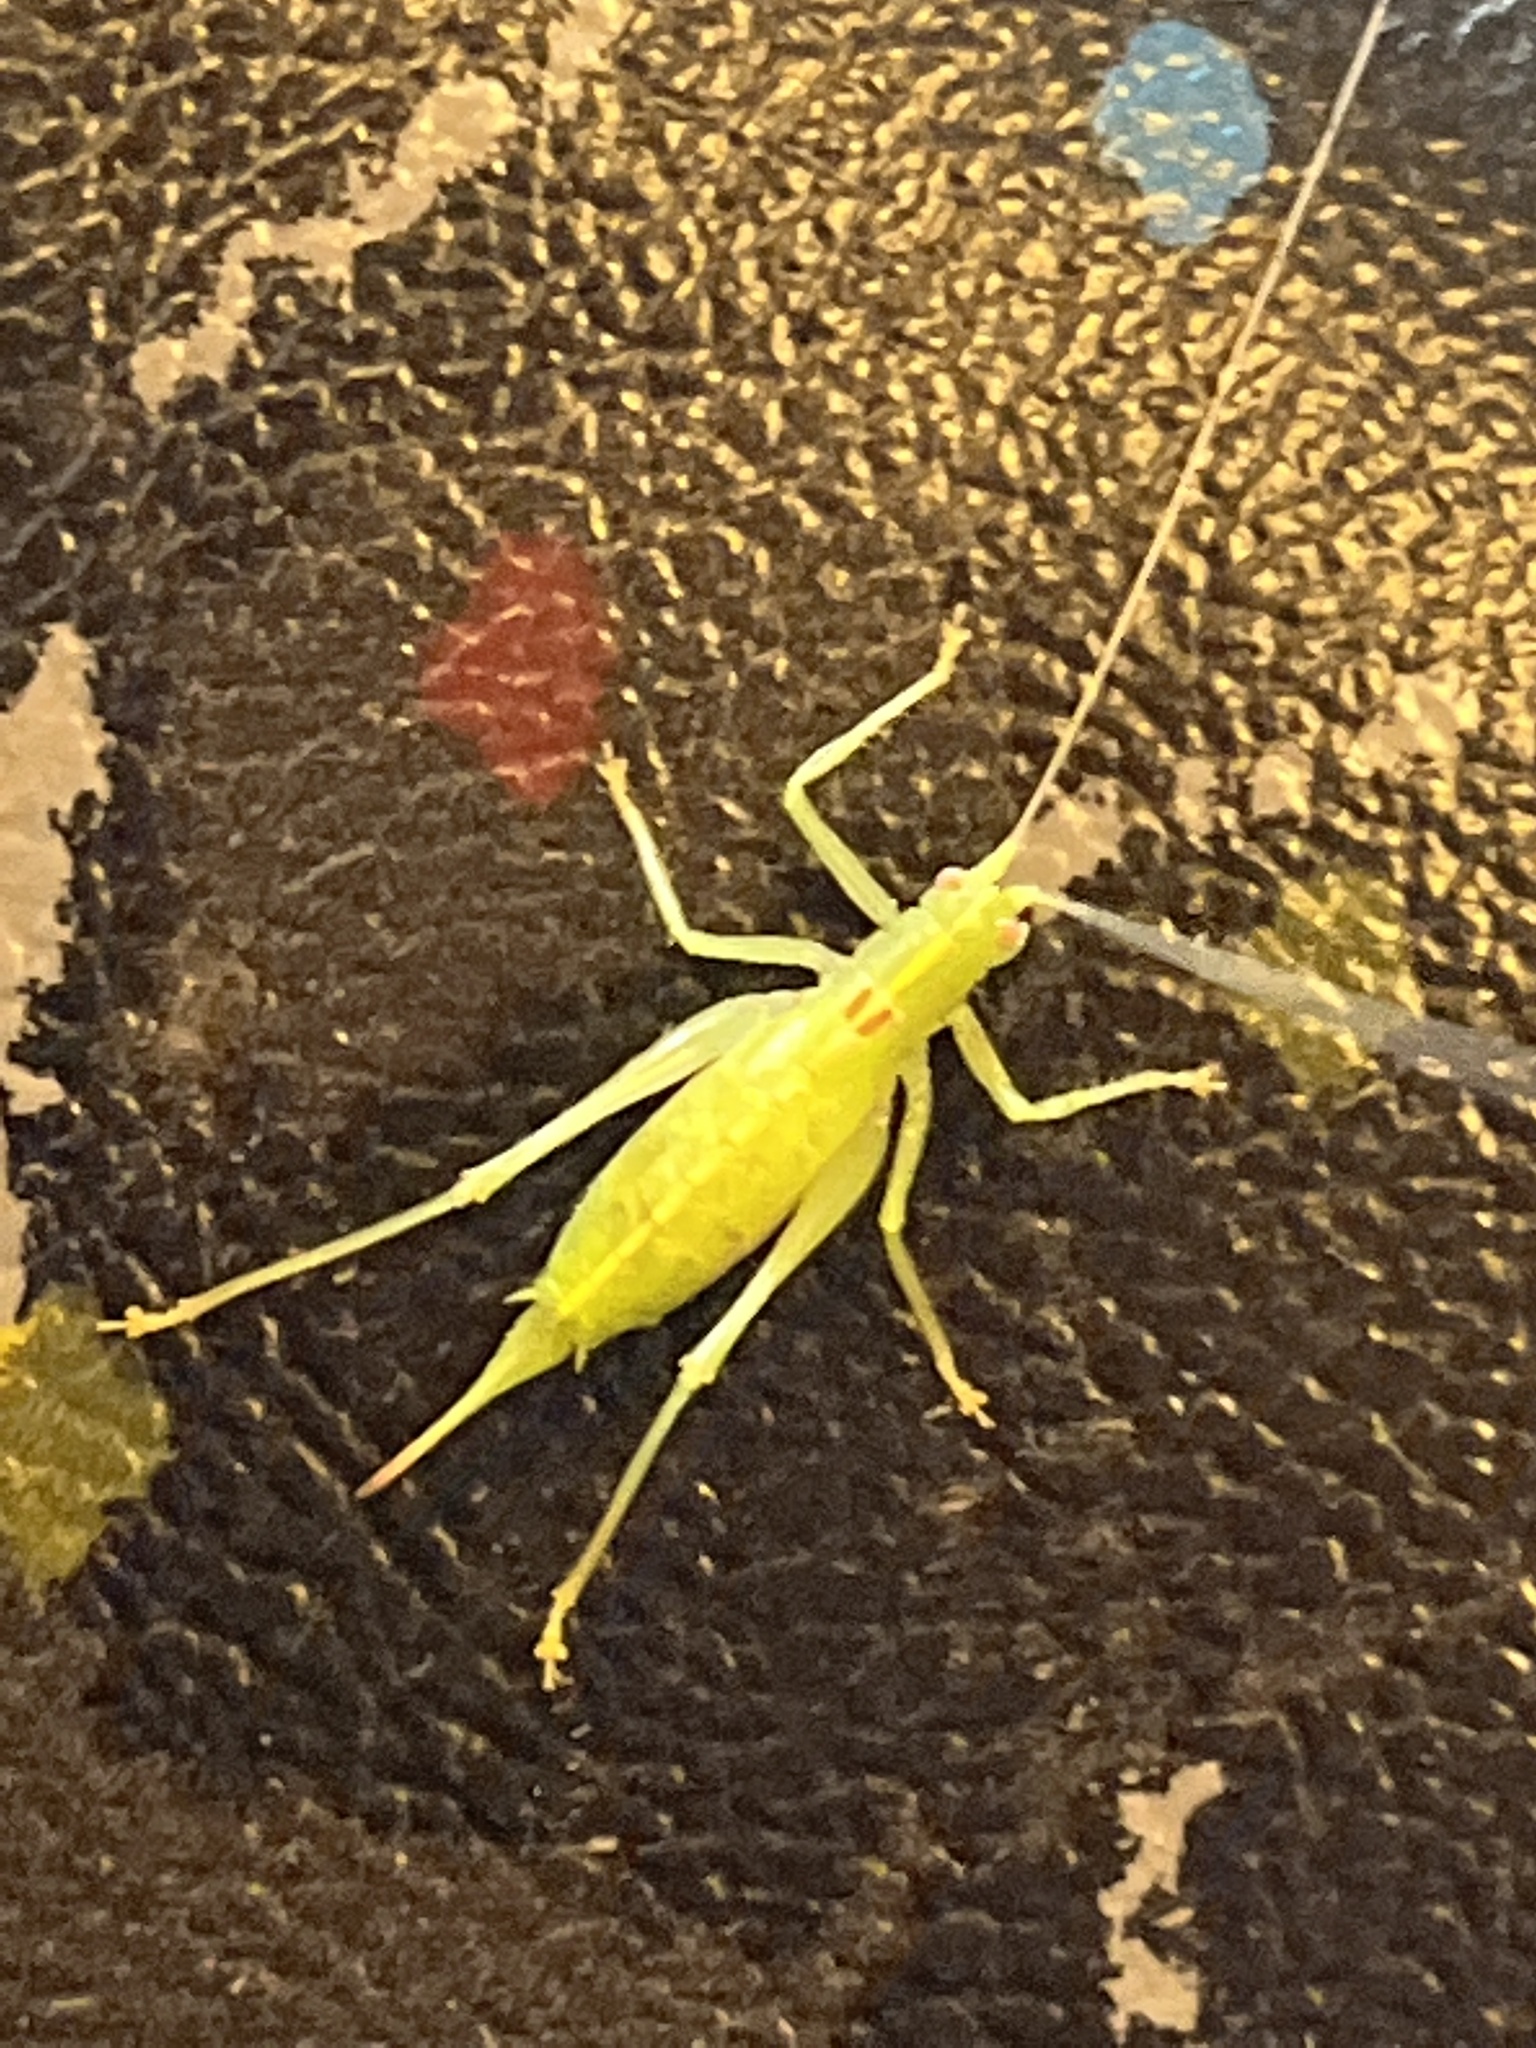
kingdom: Animalia
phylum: Arthropoda
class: Insecta
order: Orthoptera
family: Tettigoniidae
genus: Meconema
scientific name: Meconema meridionale
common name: Southern oak bush-cricket
